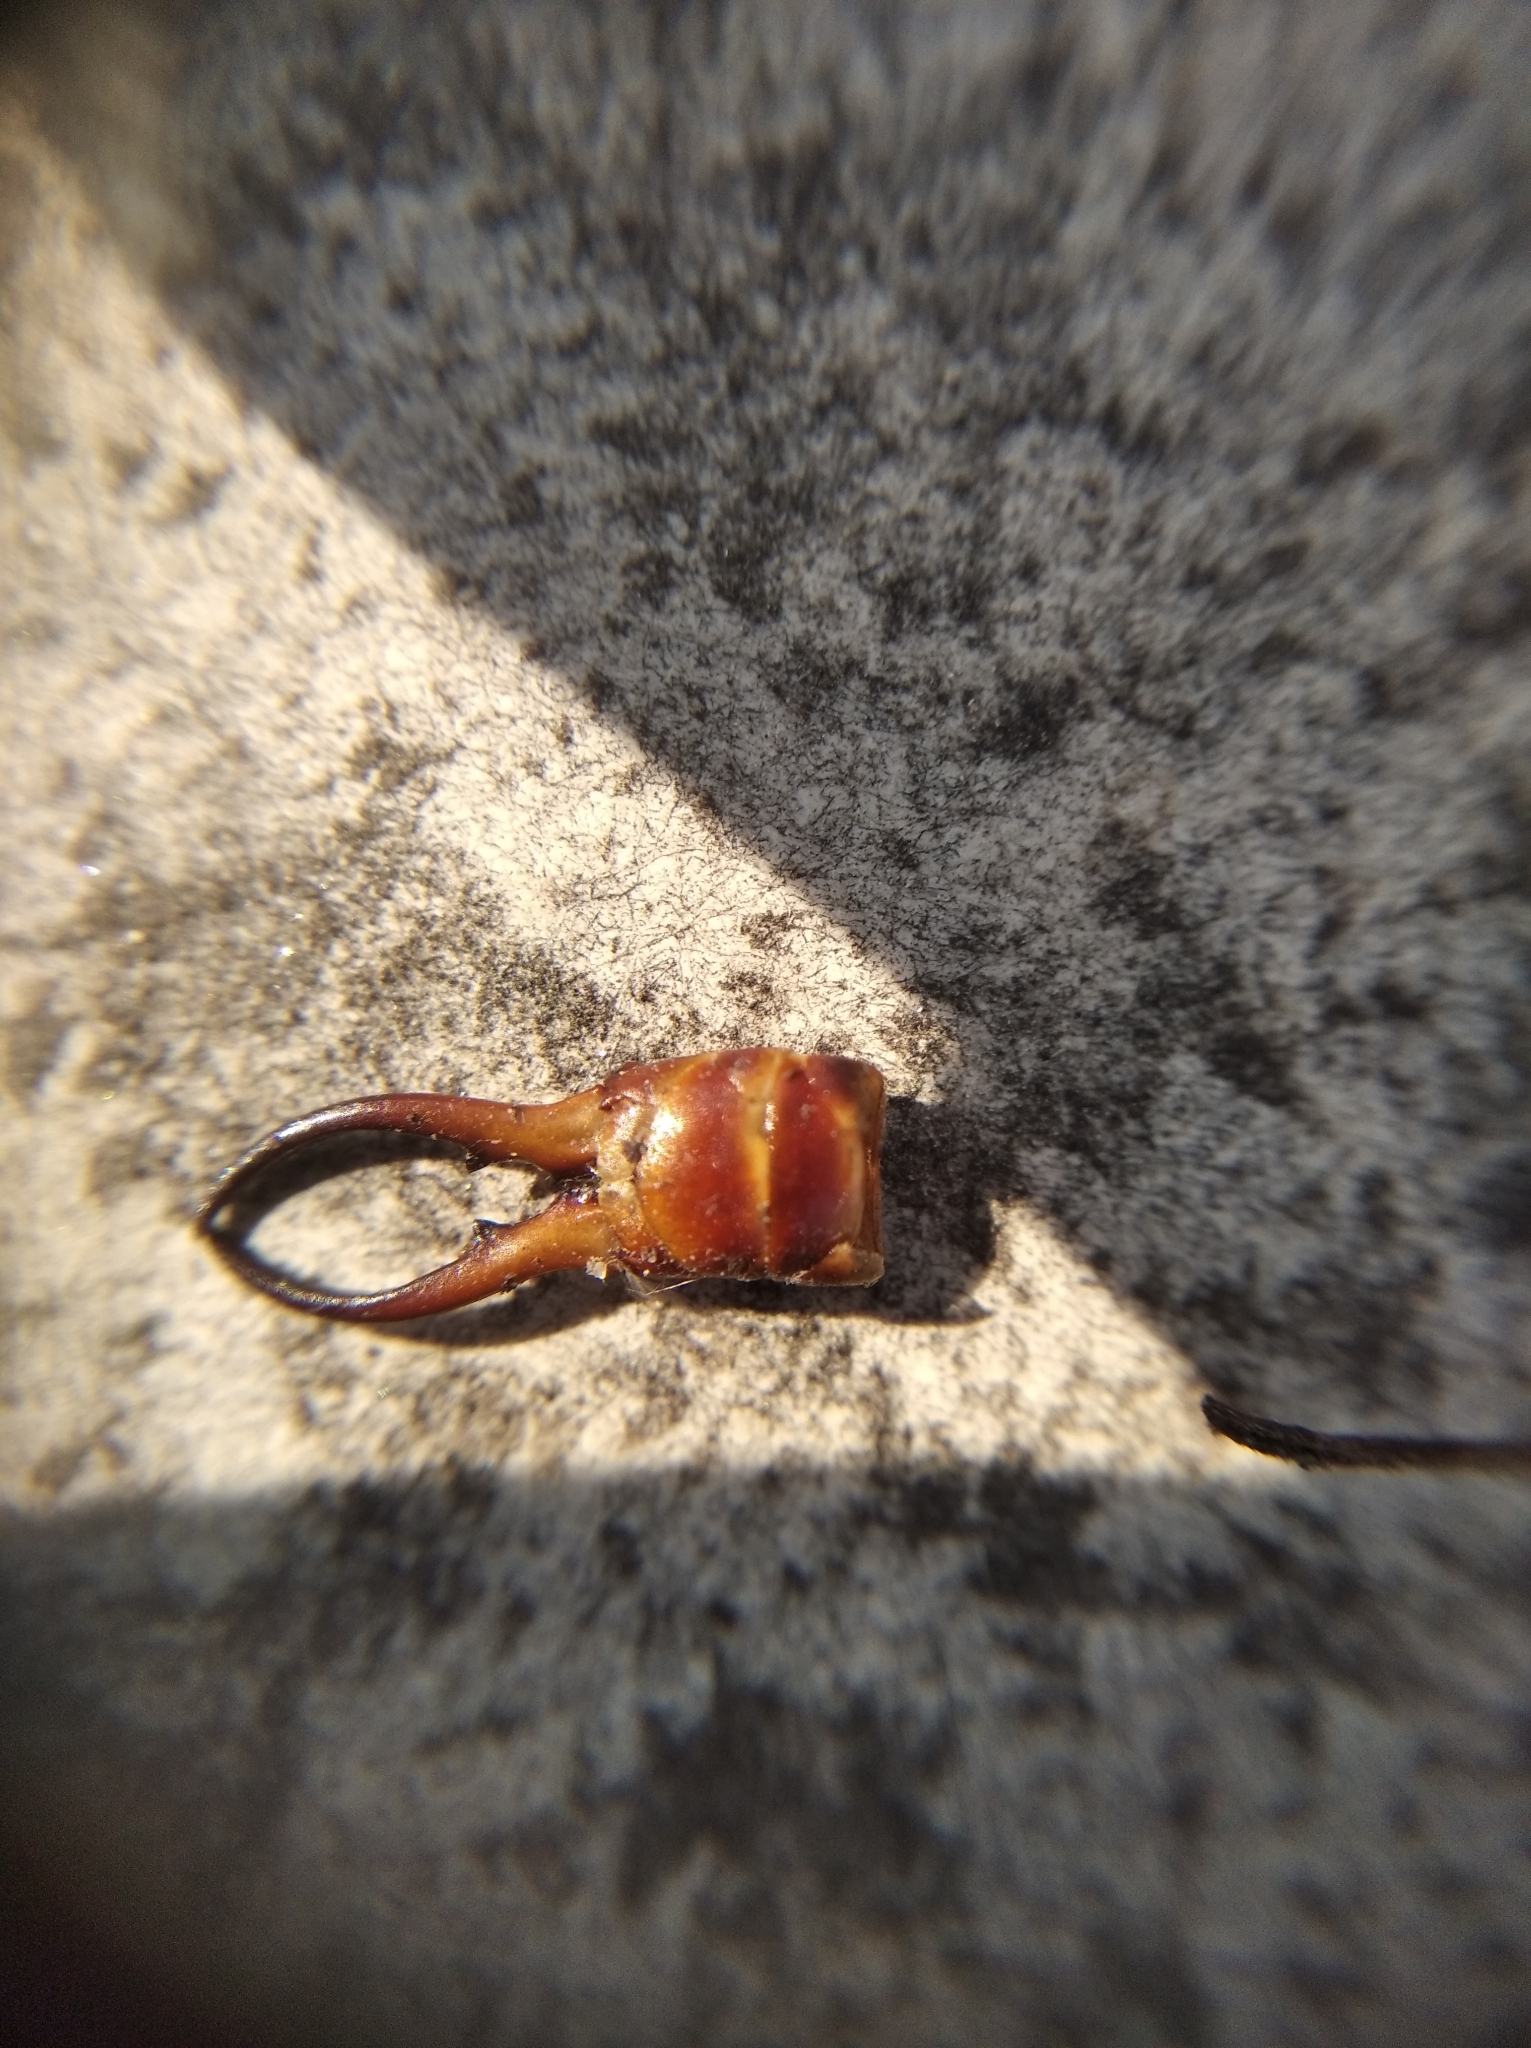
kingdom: Animalia
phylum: Arthropoda
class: Insecta
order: Dermaptera
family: Forficulidae
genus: Forficula
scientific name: Forficula
